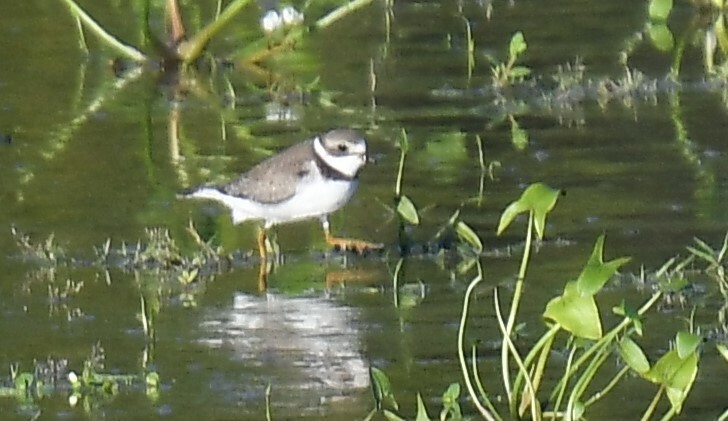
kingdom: Animalia
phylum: Chordata
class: Aves
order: Charadriiformes
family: Charadriidae
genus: Charadrius
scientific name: Charadrius semipalmatus
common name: Semipalmated plover
